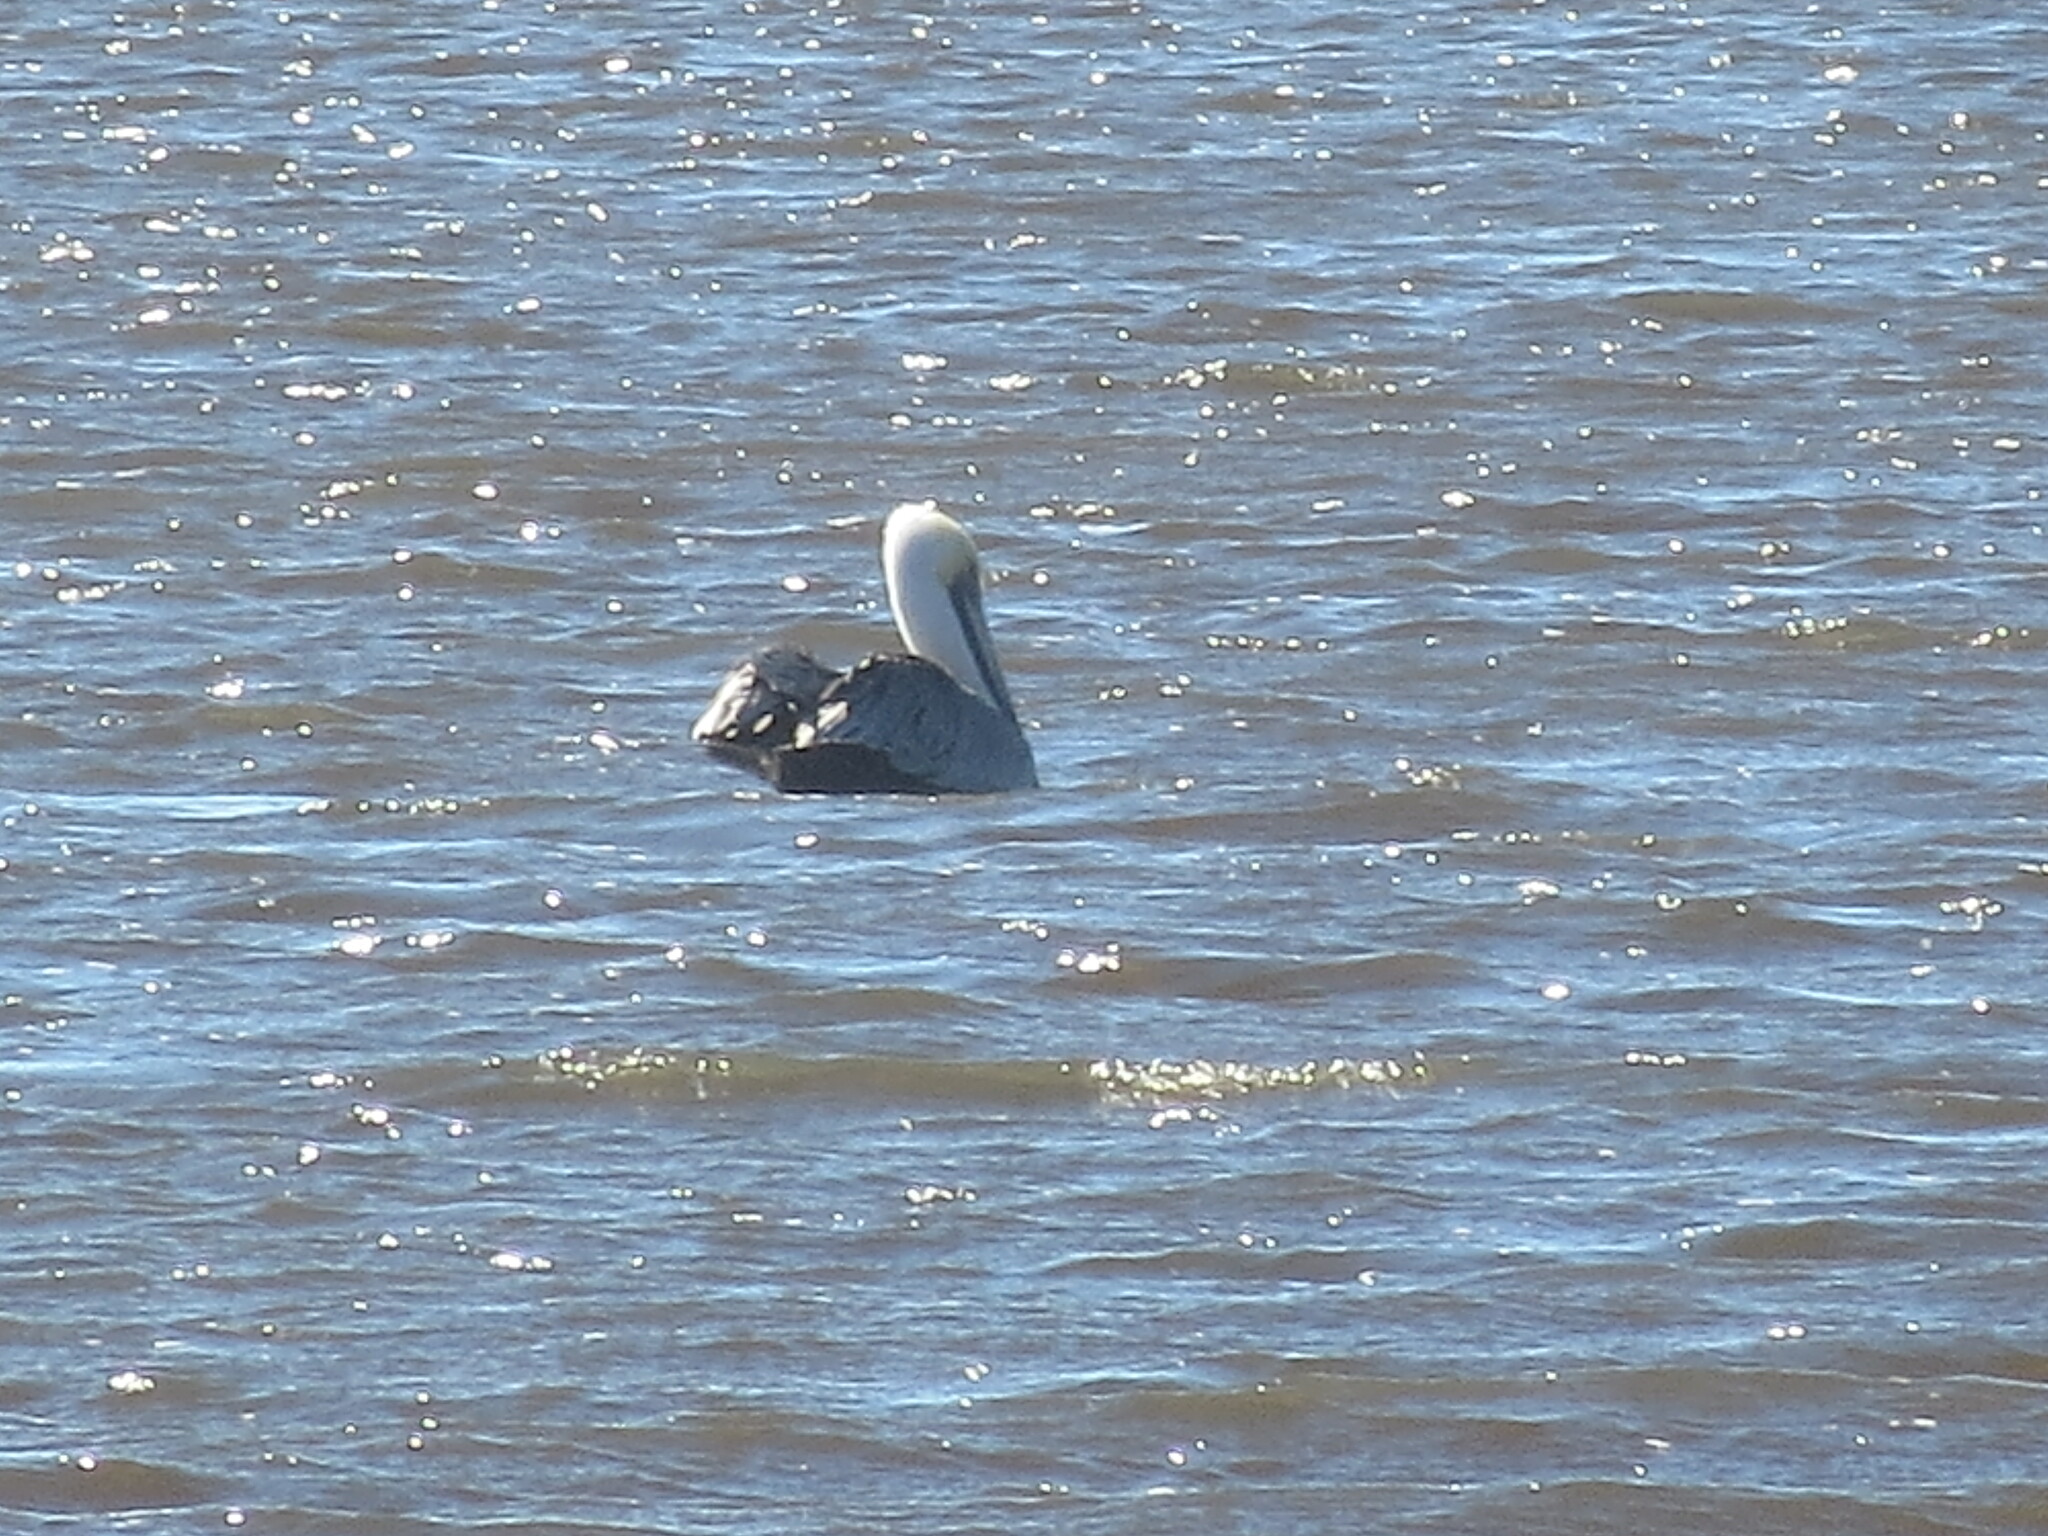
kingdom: Animalia
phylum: Chordata
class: Aves
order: Pelecaniformes
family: Pelecanidae
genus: Pelecanus
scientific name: Pelecanus occidentalis
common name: Brown pelican
